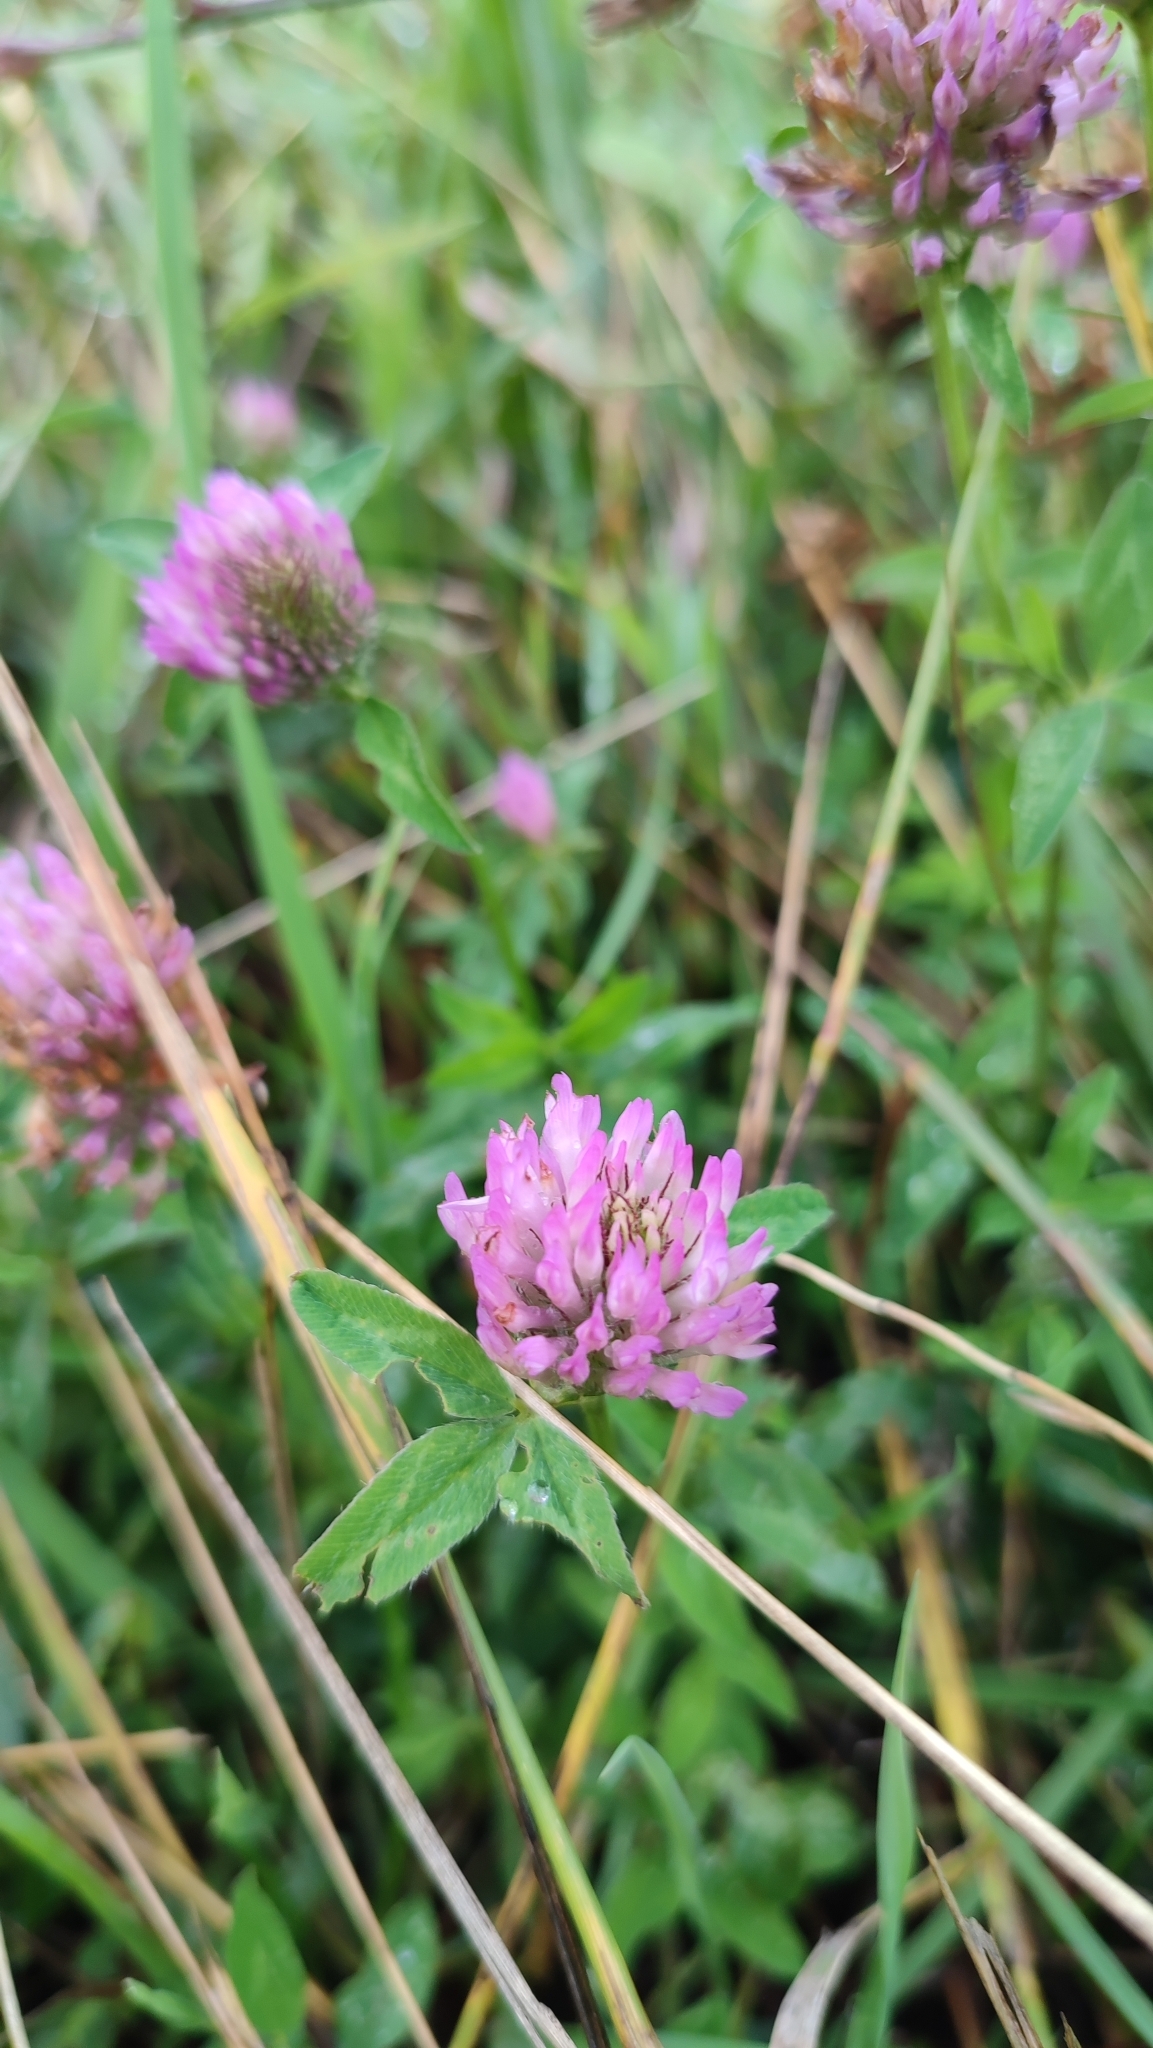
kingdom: Plantae
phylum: Tracheophyta
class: Magnoliopsida
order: Fabales
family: Fabaceae
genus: Trifolium
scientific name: Trifolium pratense
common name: Red clover
